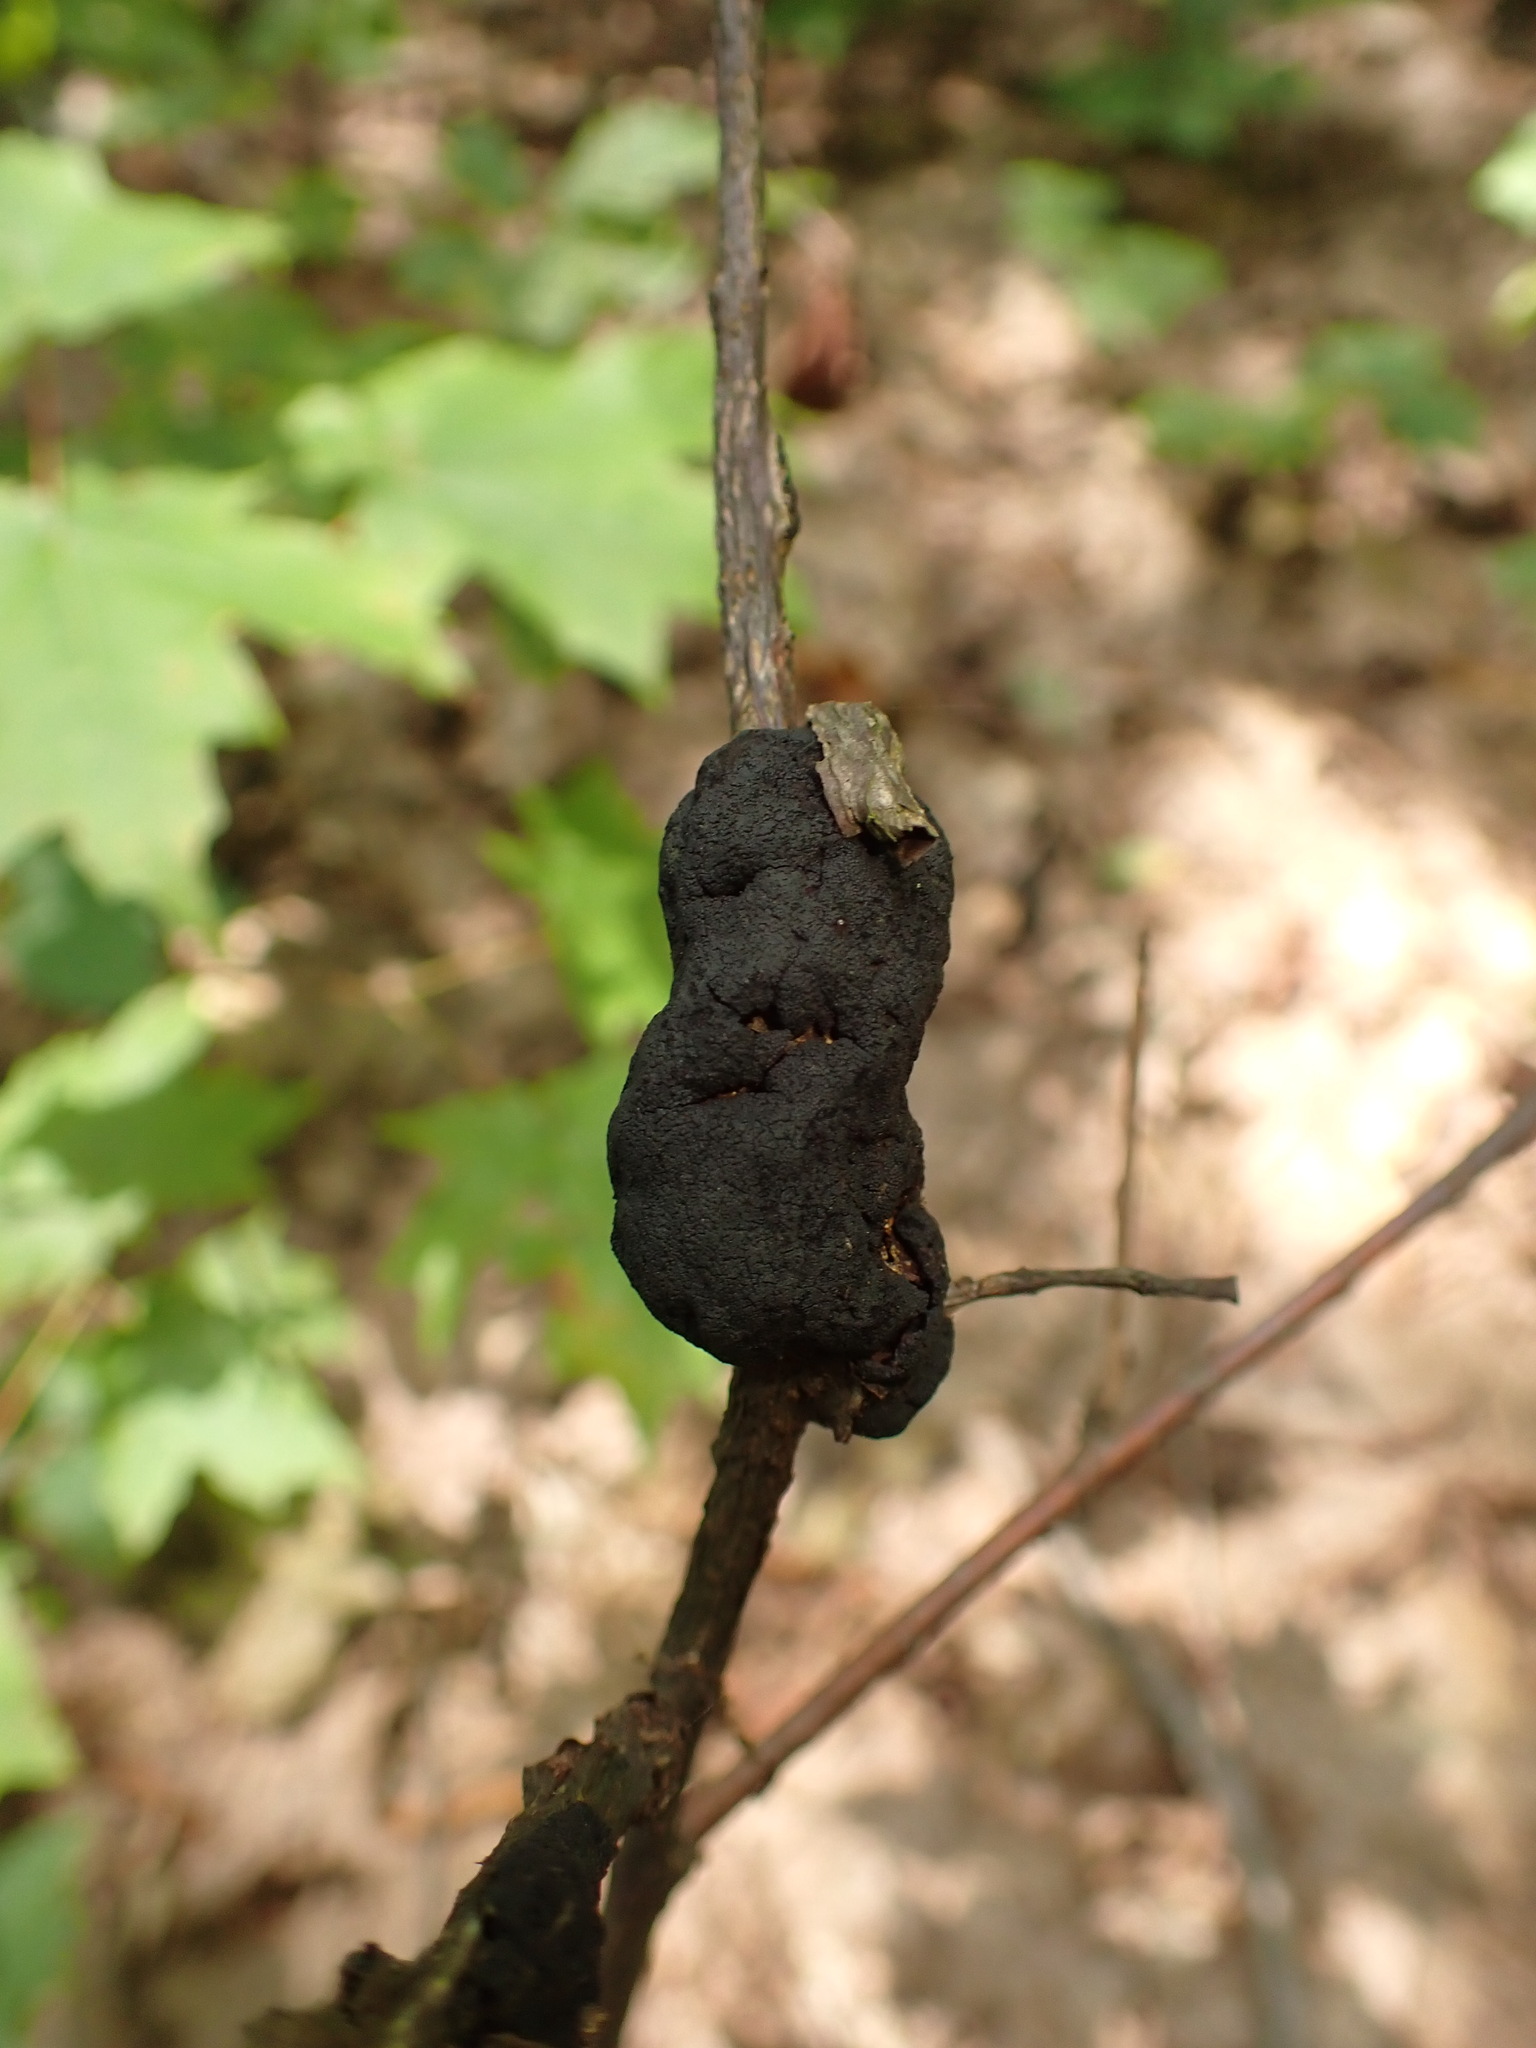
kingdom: Fungi
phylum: Ascomycota
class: Dothideomycetes
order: Venturiales
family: Venturiaceae
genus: Apiosporina
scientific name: Apiosporina morbosa
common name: Black knot
